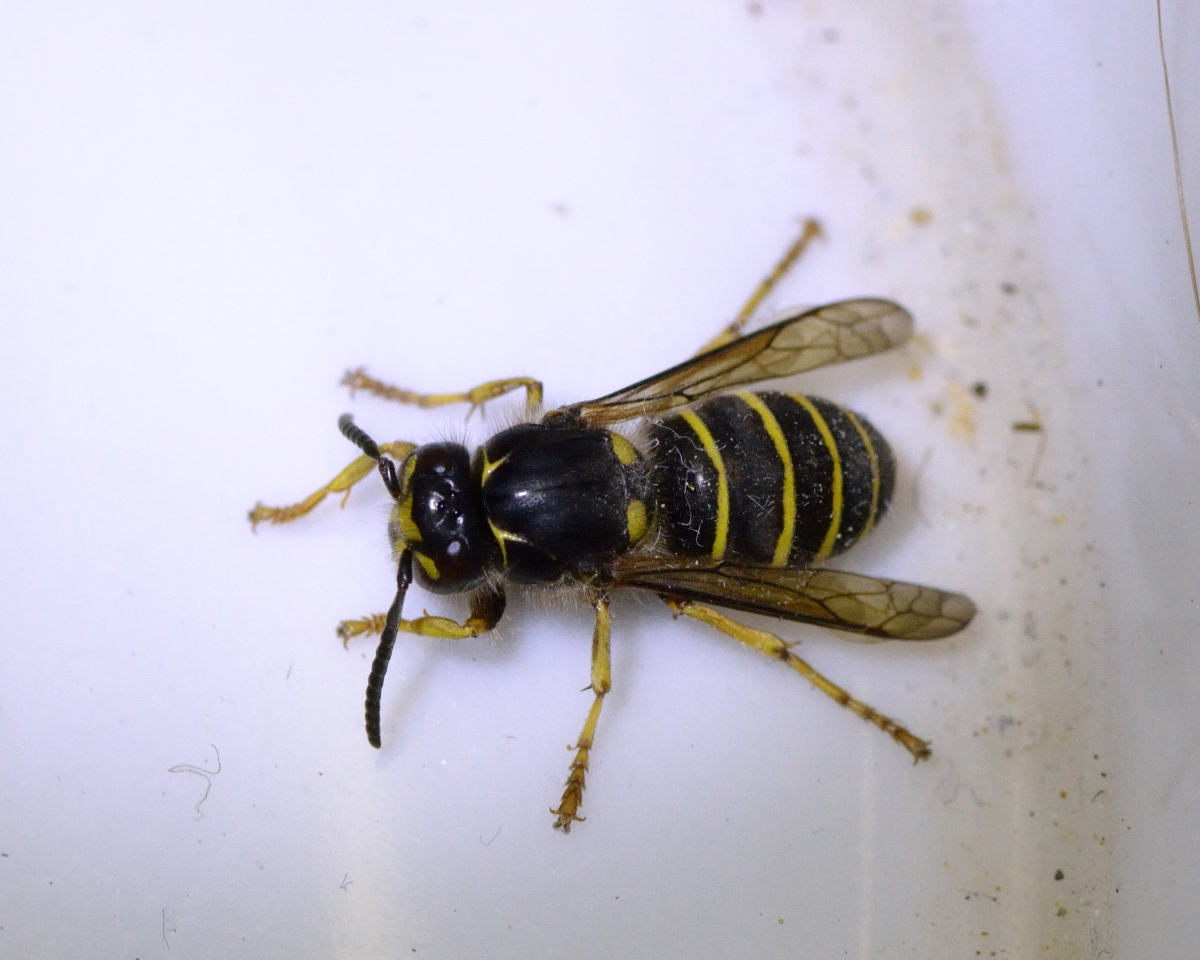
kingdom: Animalia
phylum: Arthropoda
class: Insecta
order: Hymenoptera
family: Vespidae
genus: Dolichovespula
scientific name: Dolichovespula media
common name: Median wasp
